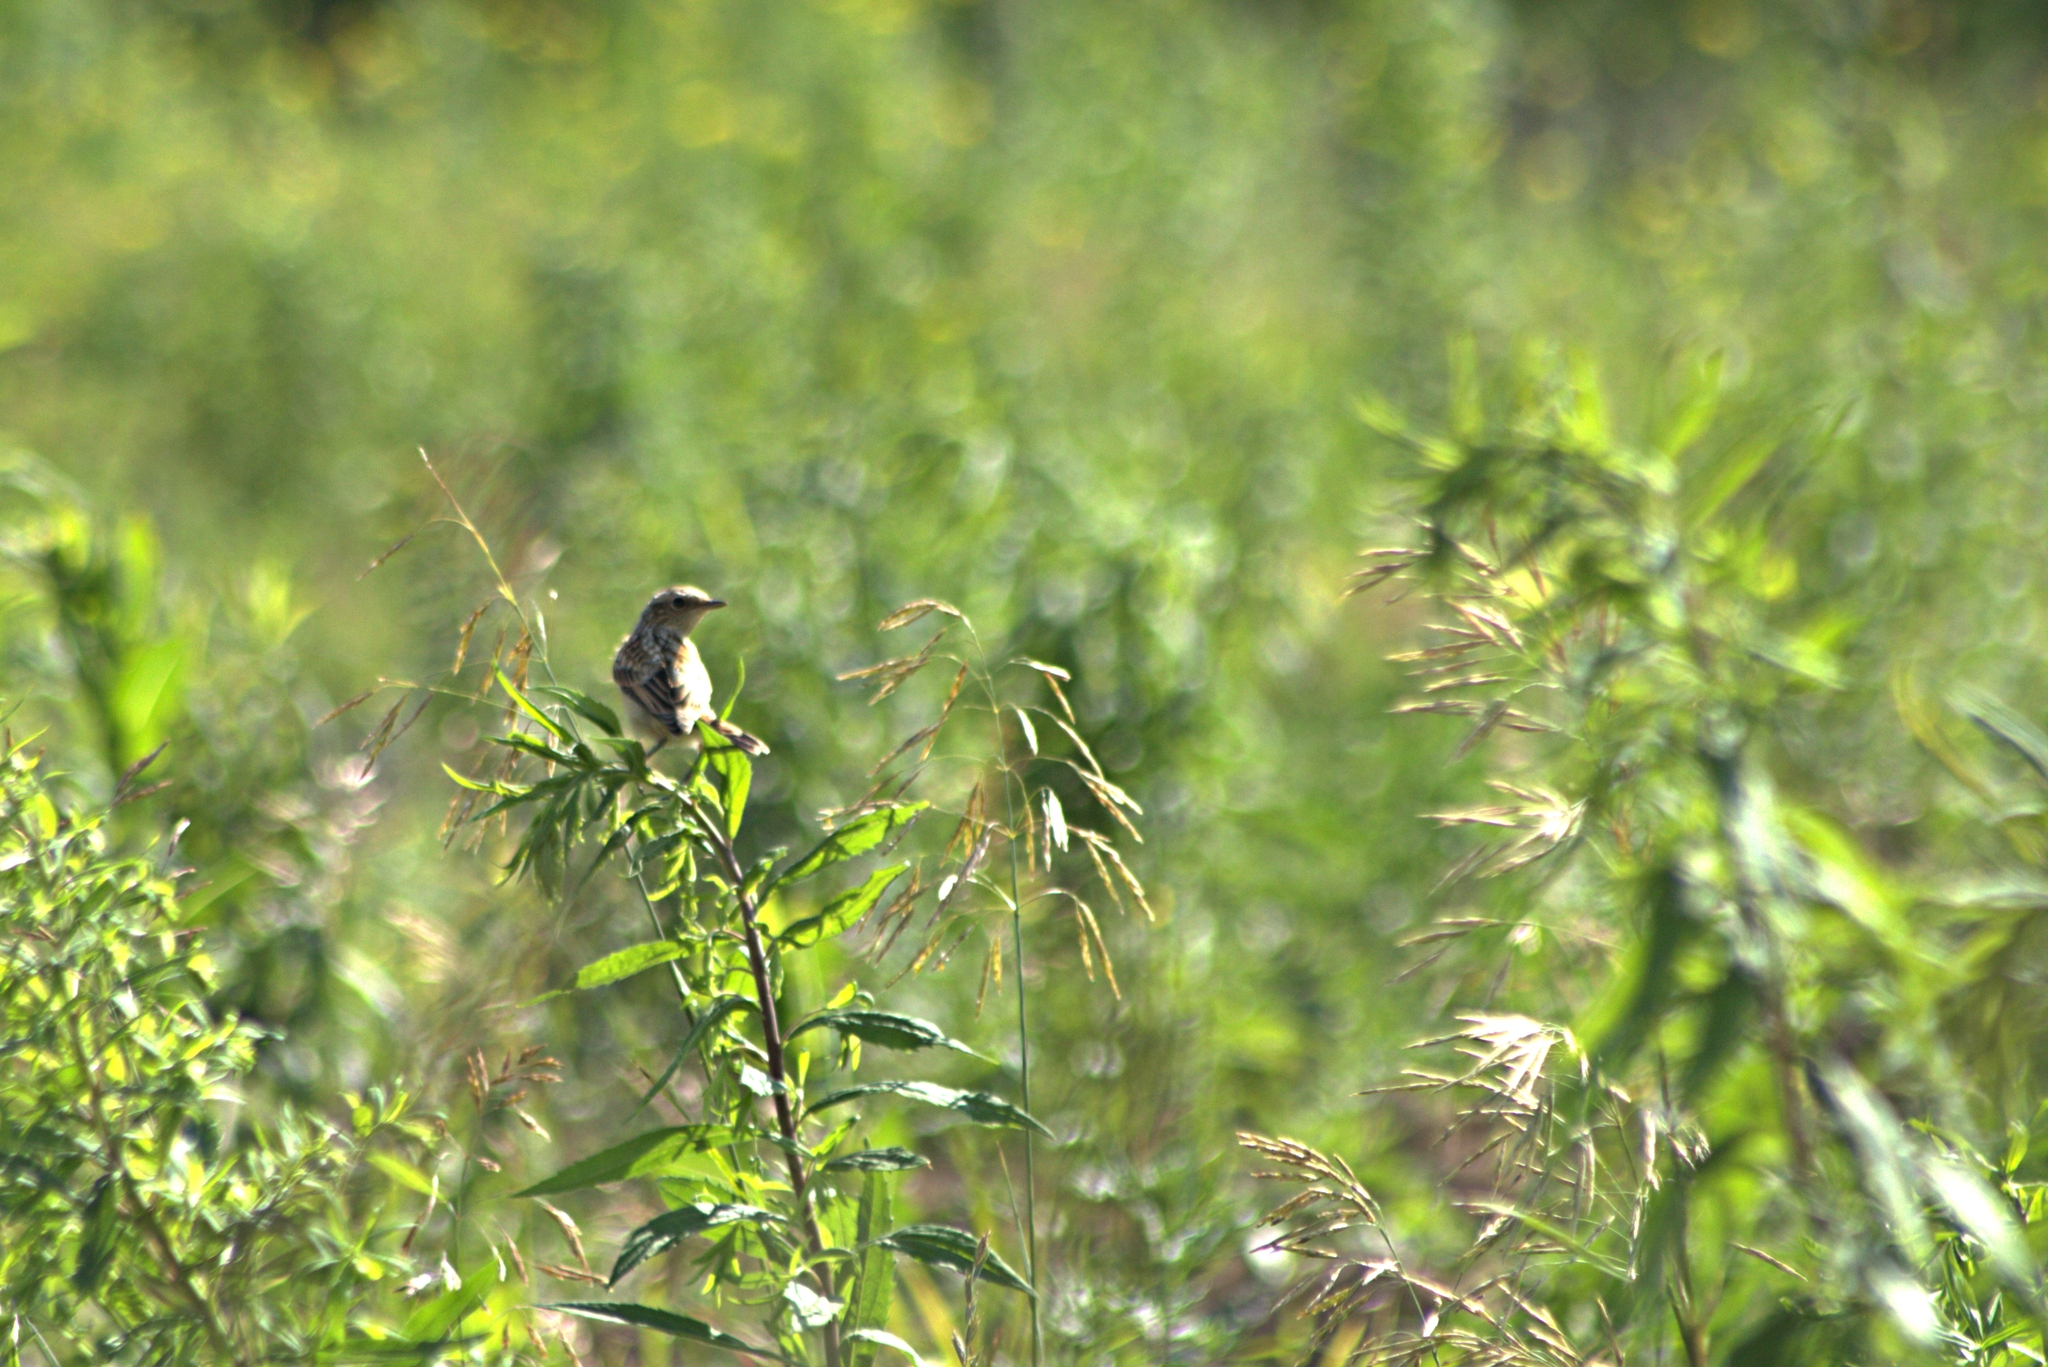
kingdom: Animalia
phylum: Chordata
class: Aves
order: Passeriformes
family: Muscicapidae
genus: Saxicola
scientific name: Saxicola rubetra
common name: Whinchat
